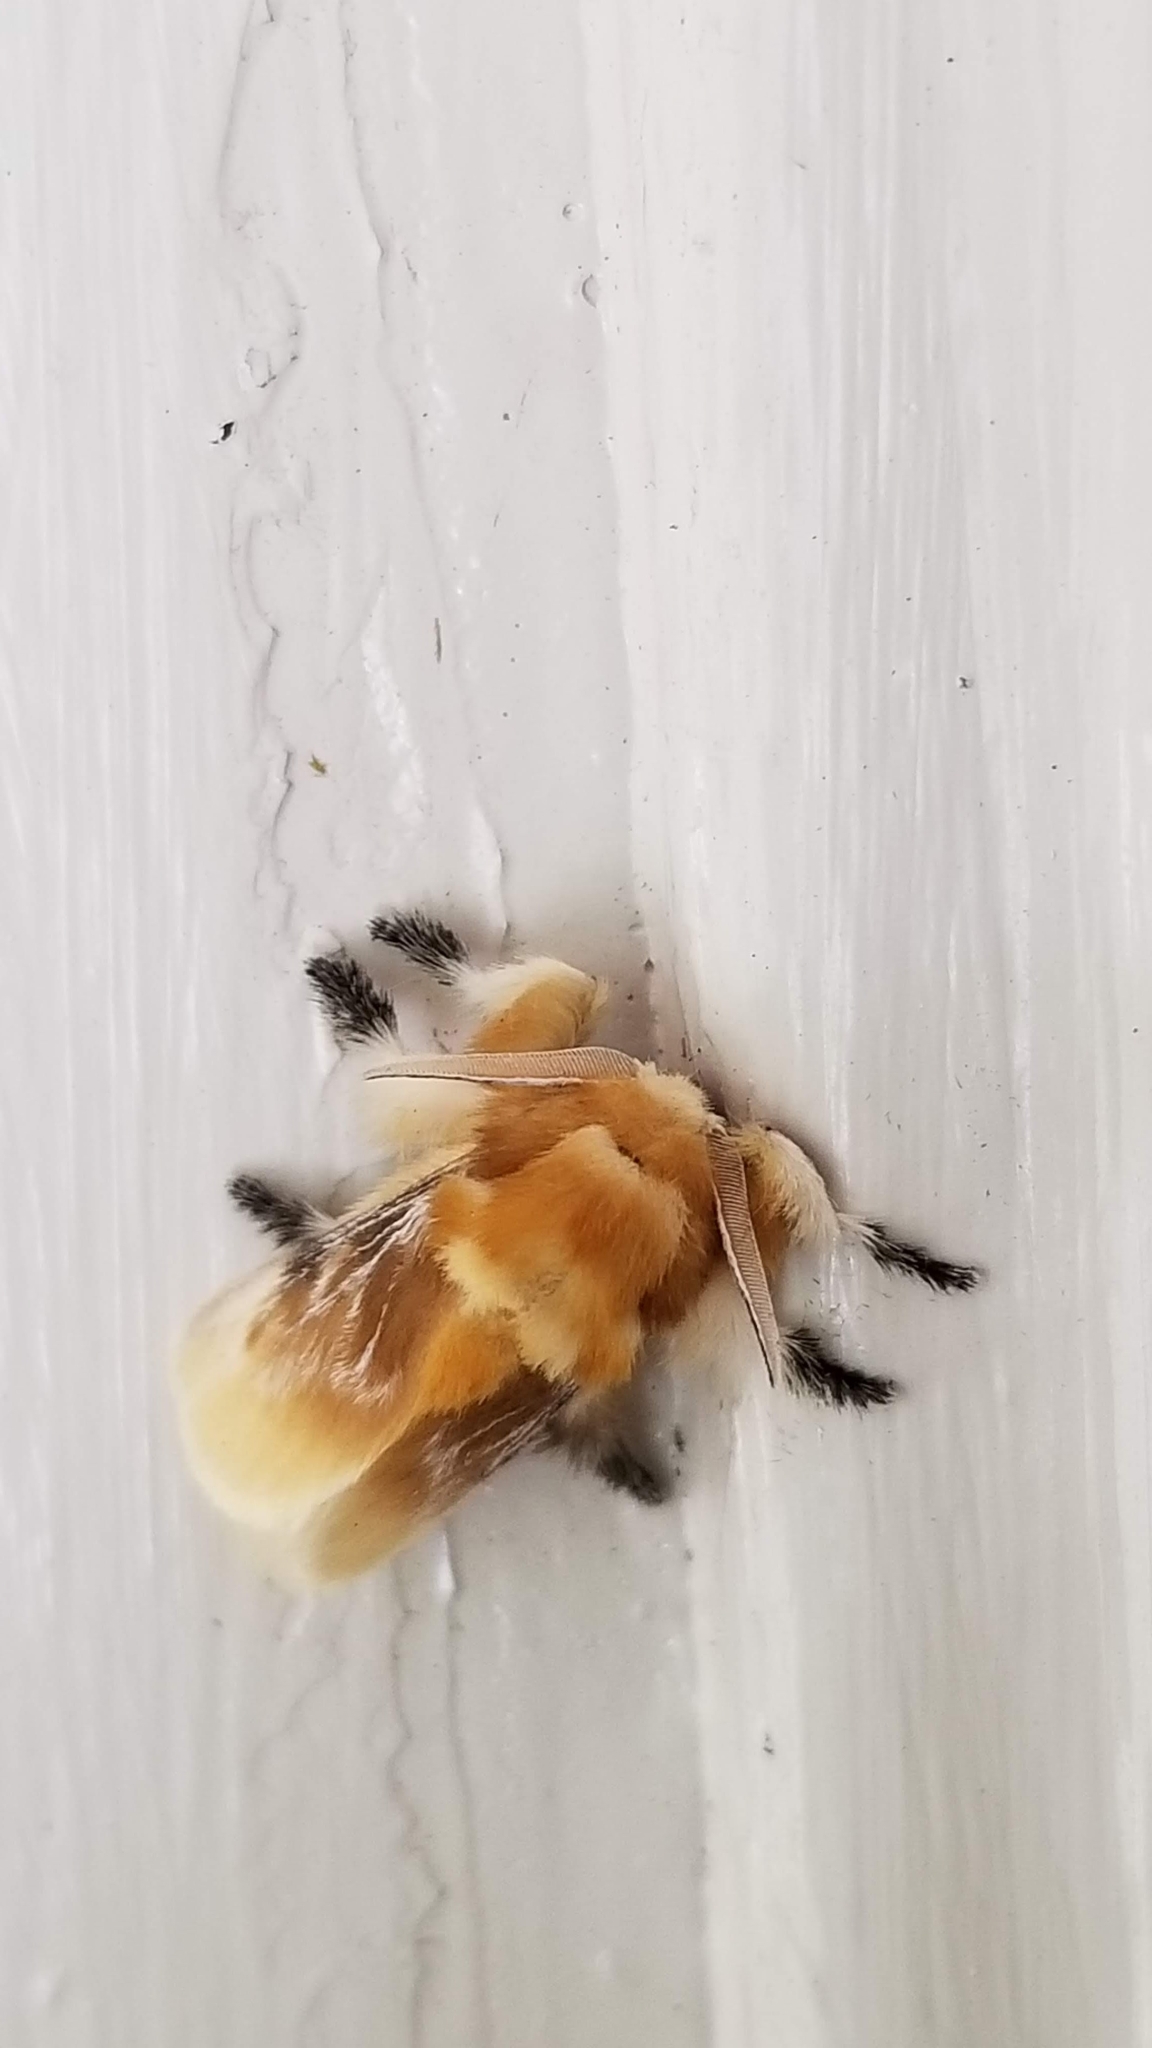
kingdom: Animalia
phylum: Arthropoda
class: Insecta
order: Lepidoptera
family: Megalopygidae
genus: Megalopyge
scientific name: Megalopyge opercularis
